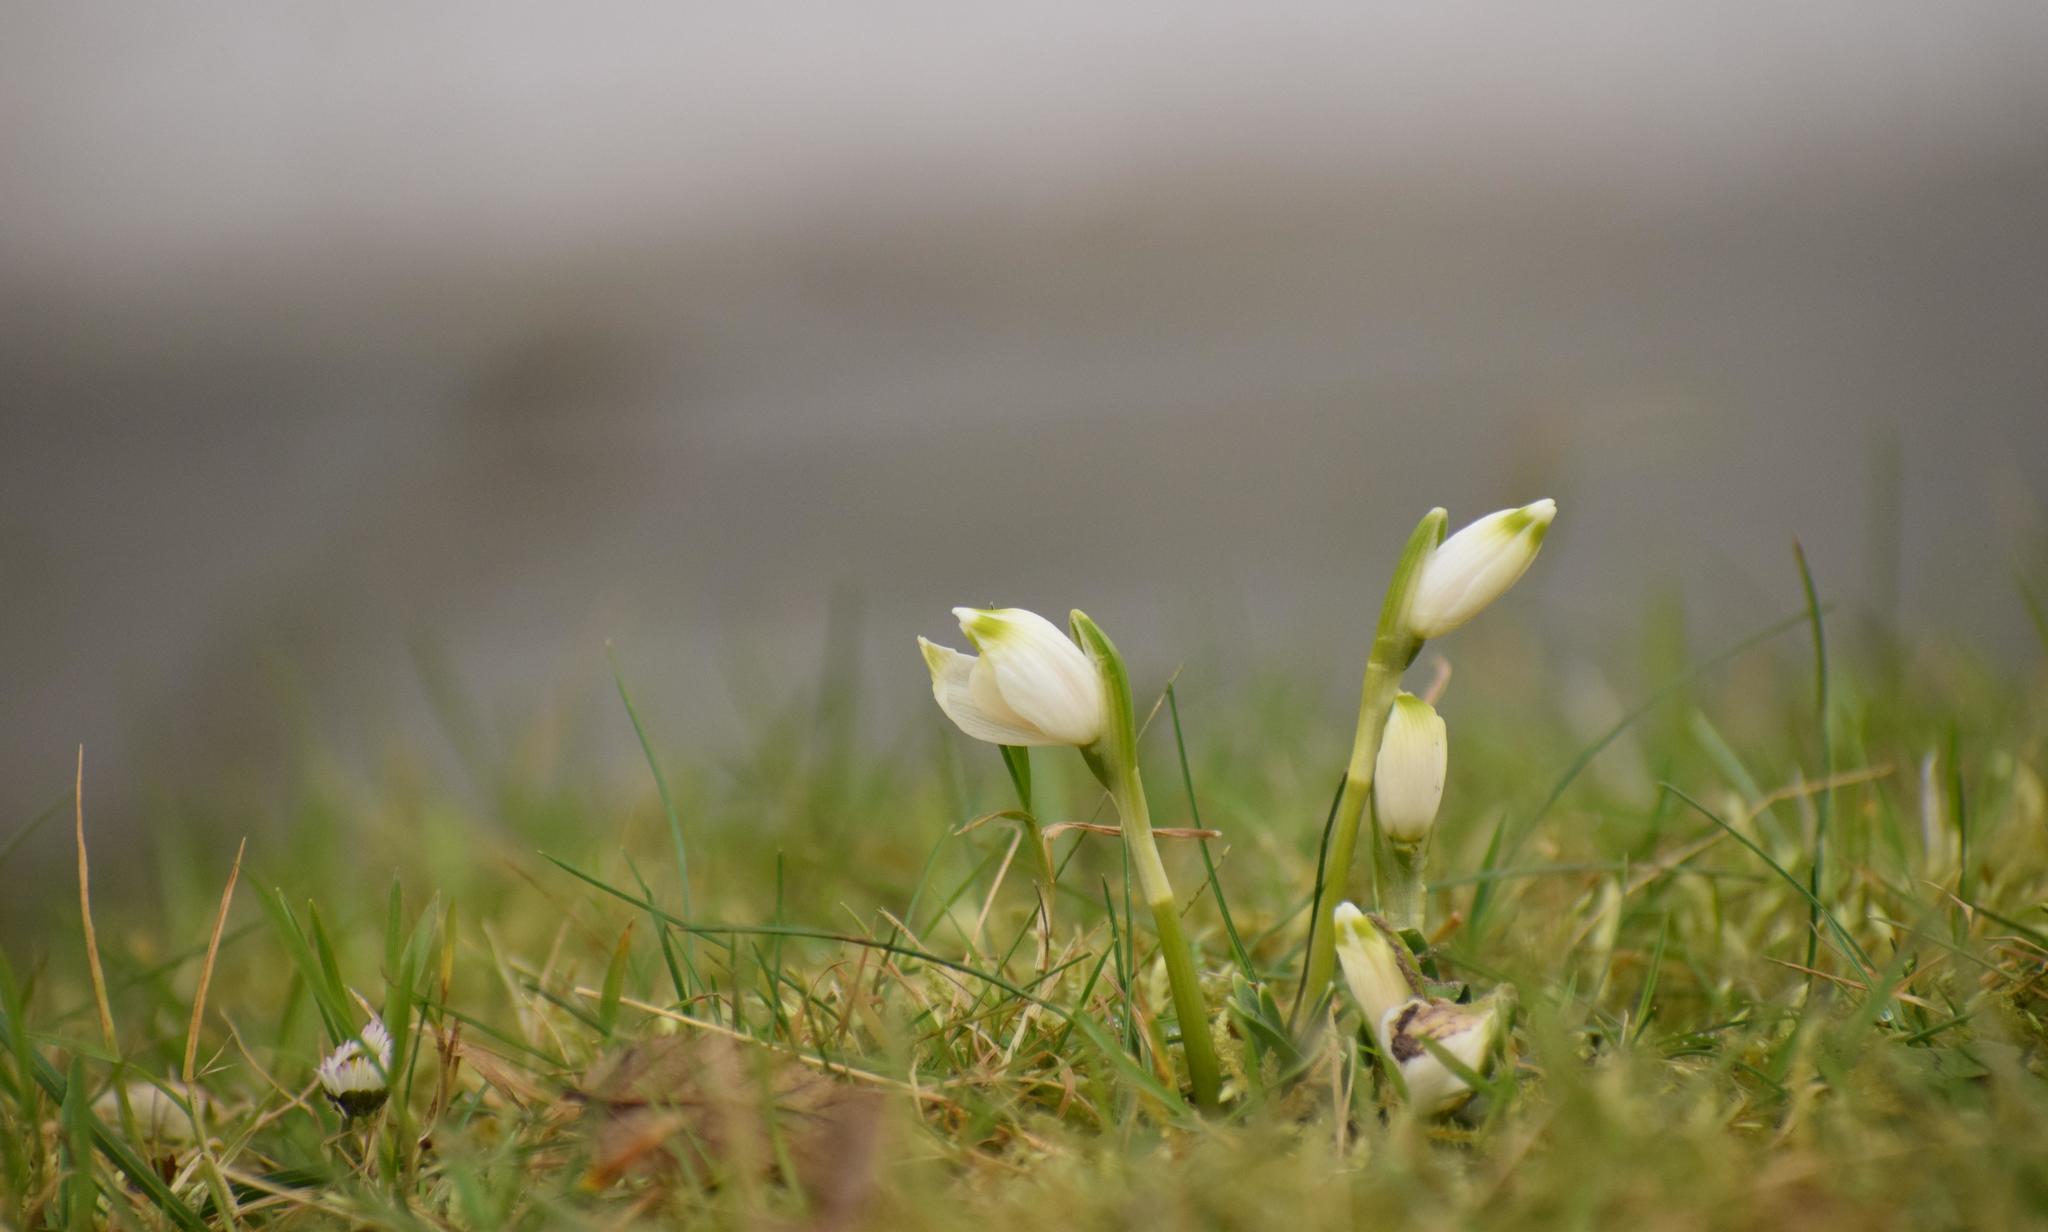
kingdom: Plantae
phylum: Tracheophyta
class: Liliopsida
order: Asparagales
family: Amaryllidaceae
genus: Leucojum
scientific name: Leucojum vernum
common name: Spring snowflake
